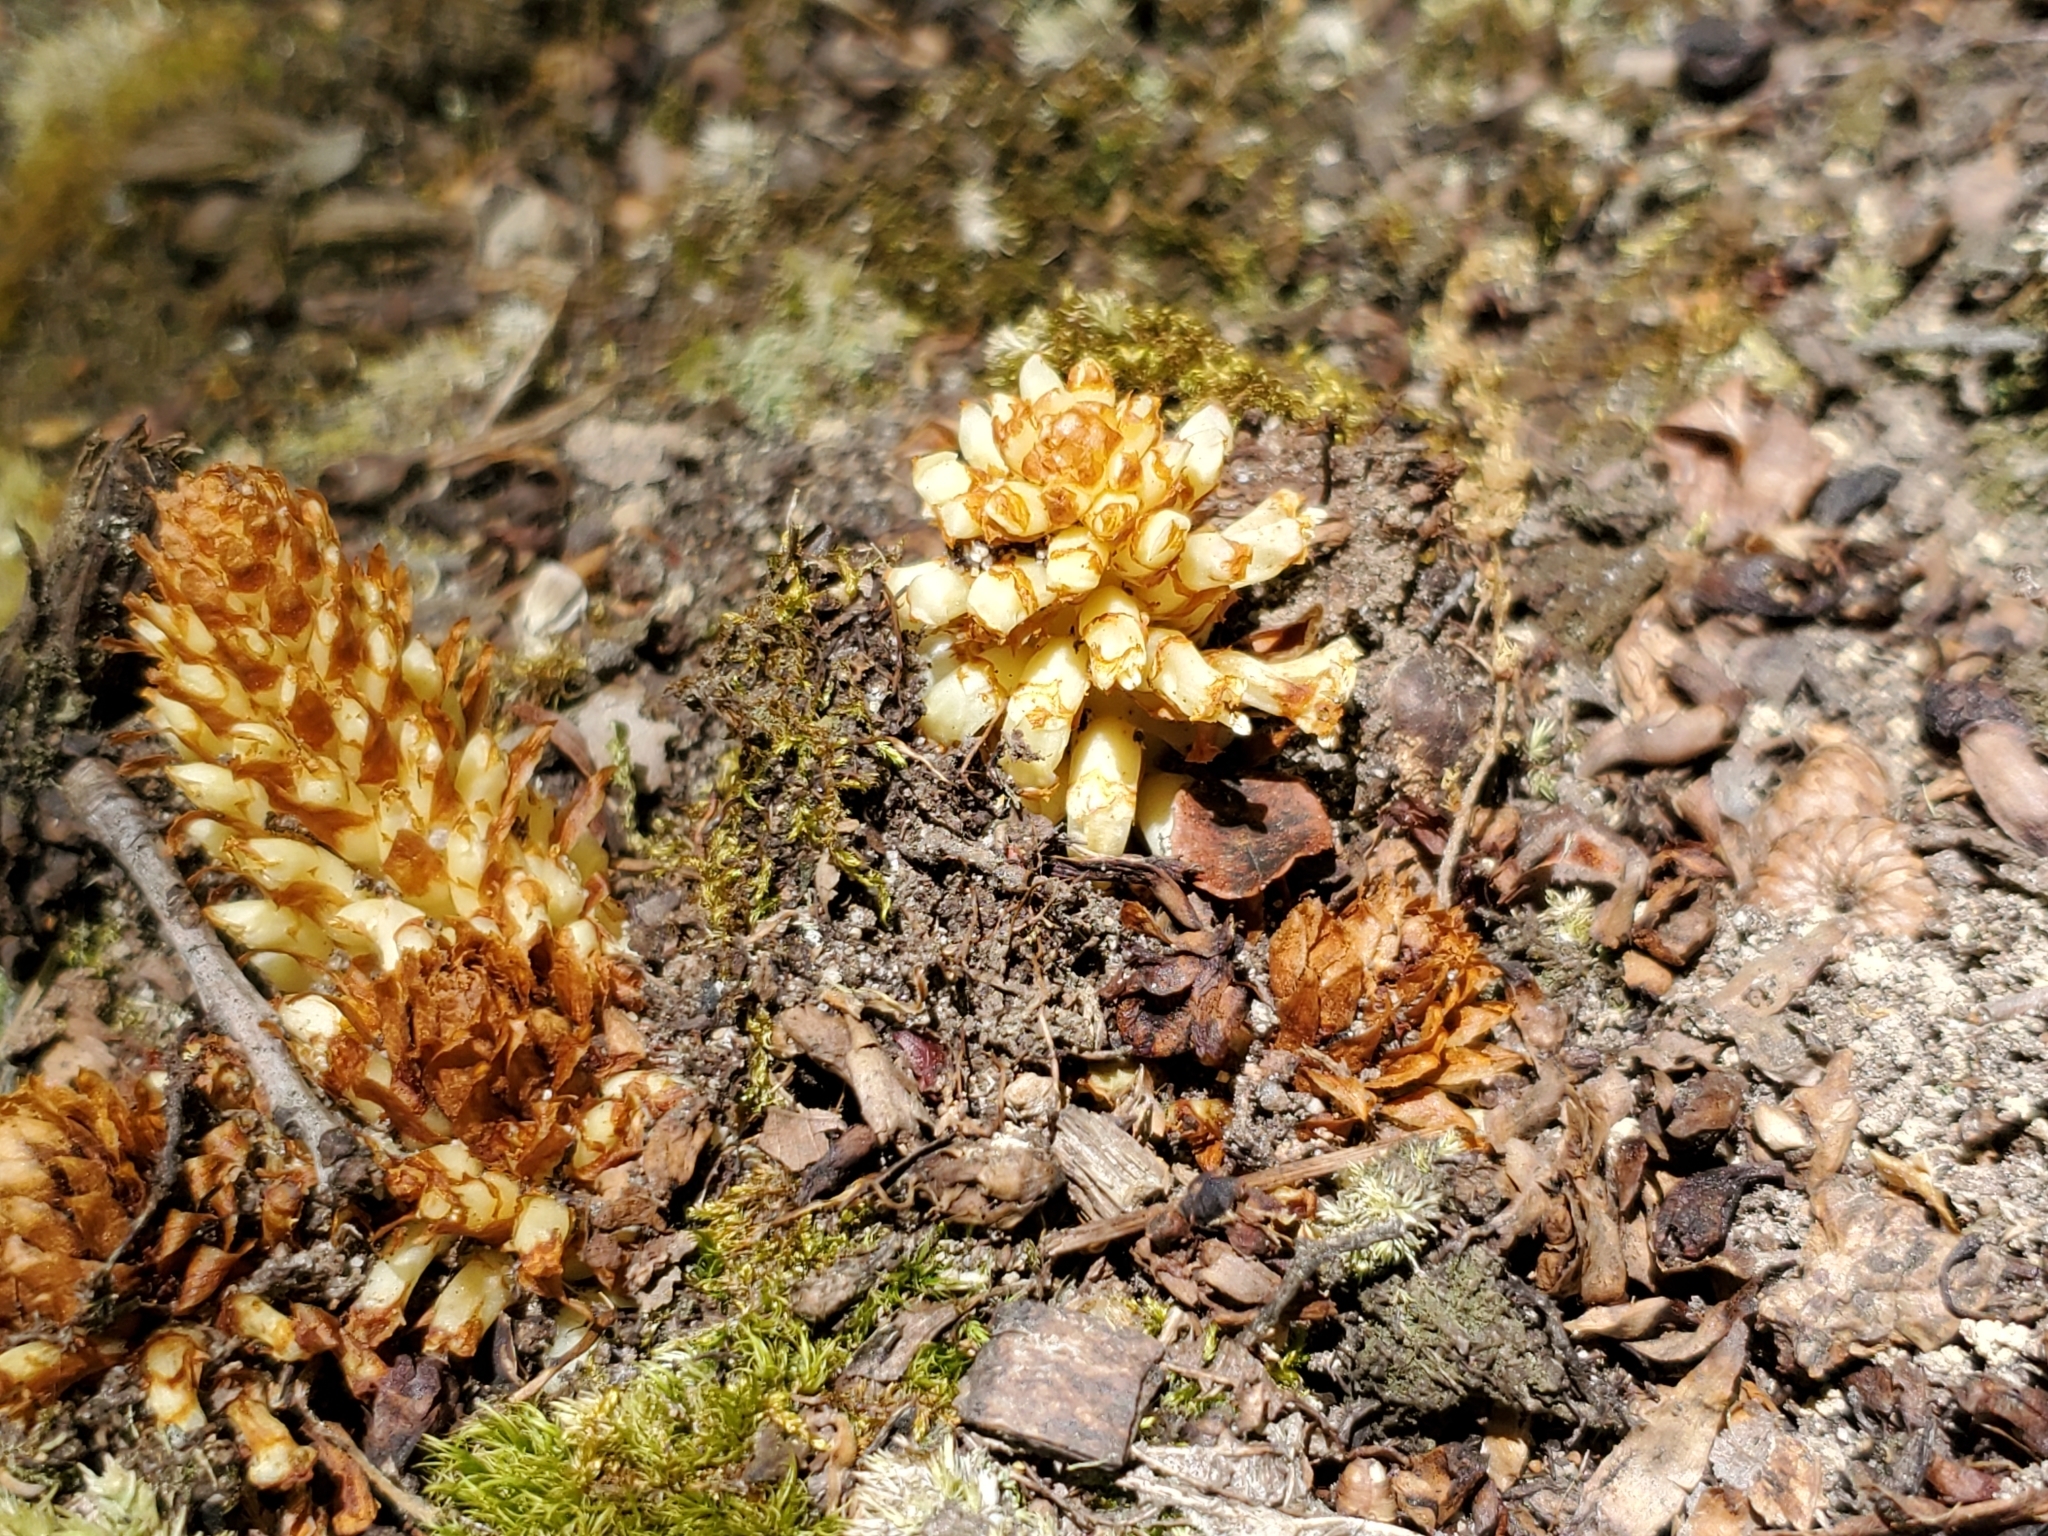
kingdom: Plantae
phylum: Tracheophyta
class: Magnoliopsida
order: Lamiales
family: Orobanchaceae
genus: Conopholis
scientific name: Conopholis americana
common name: American cancer-root
